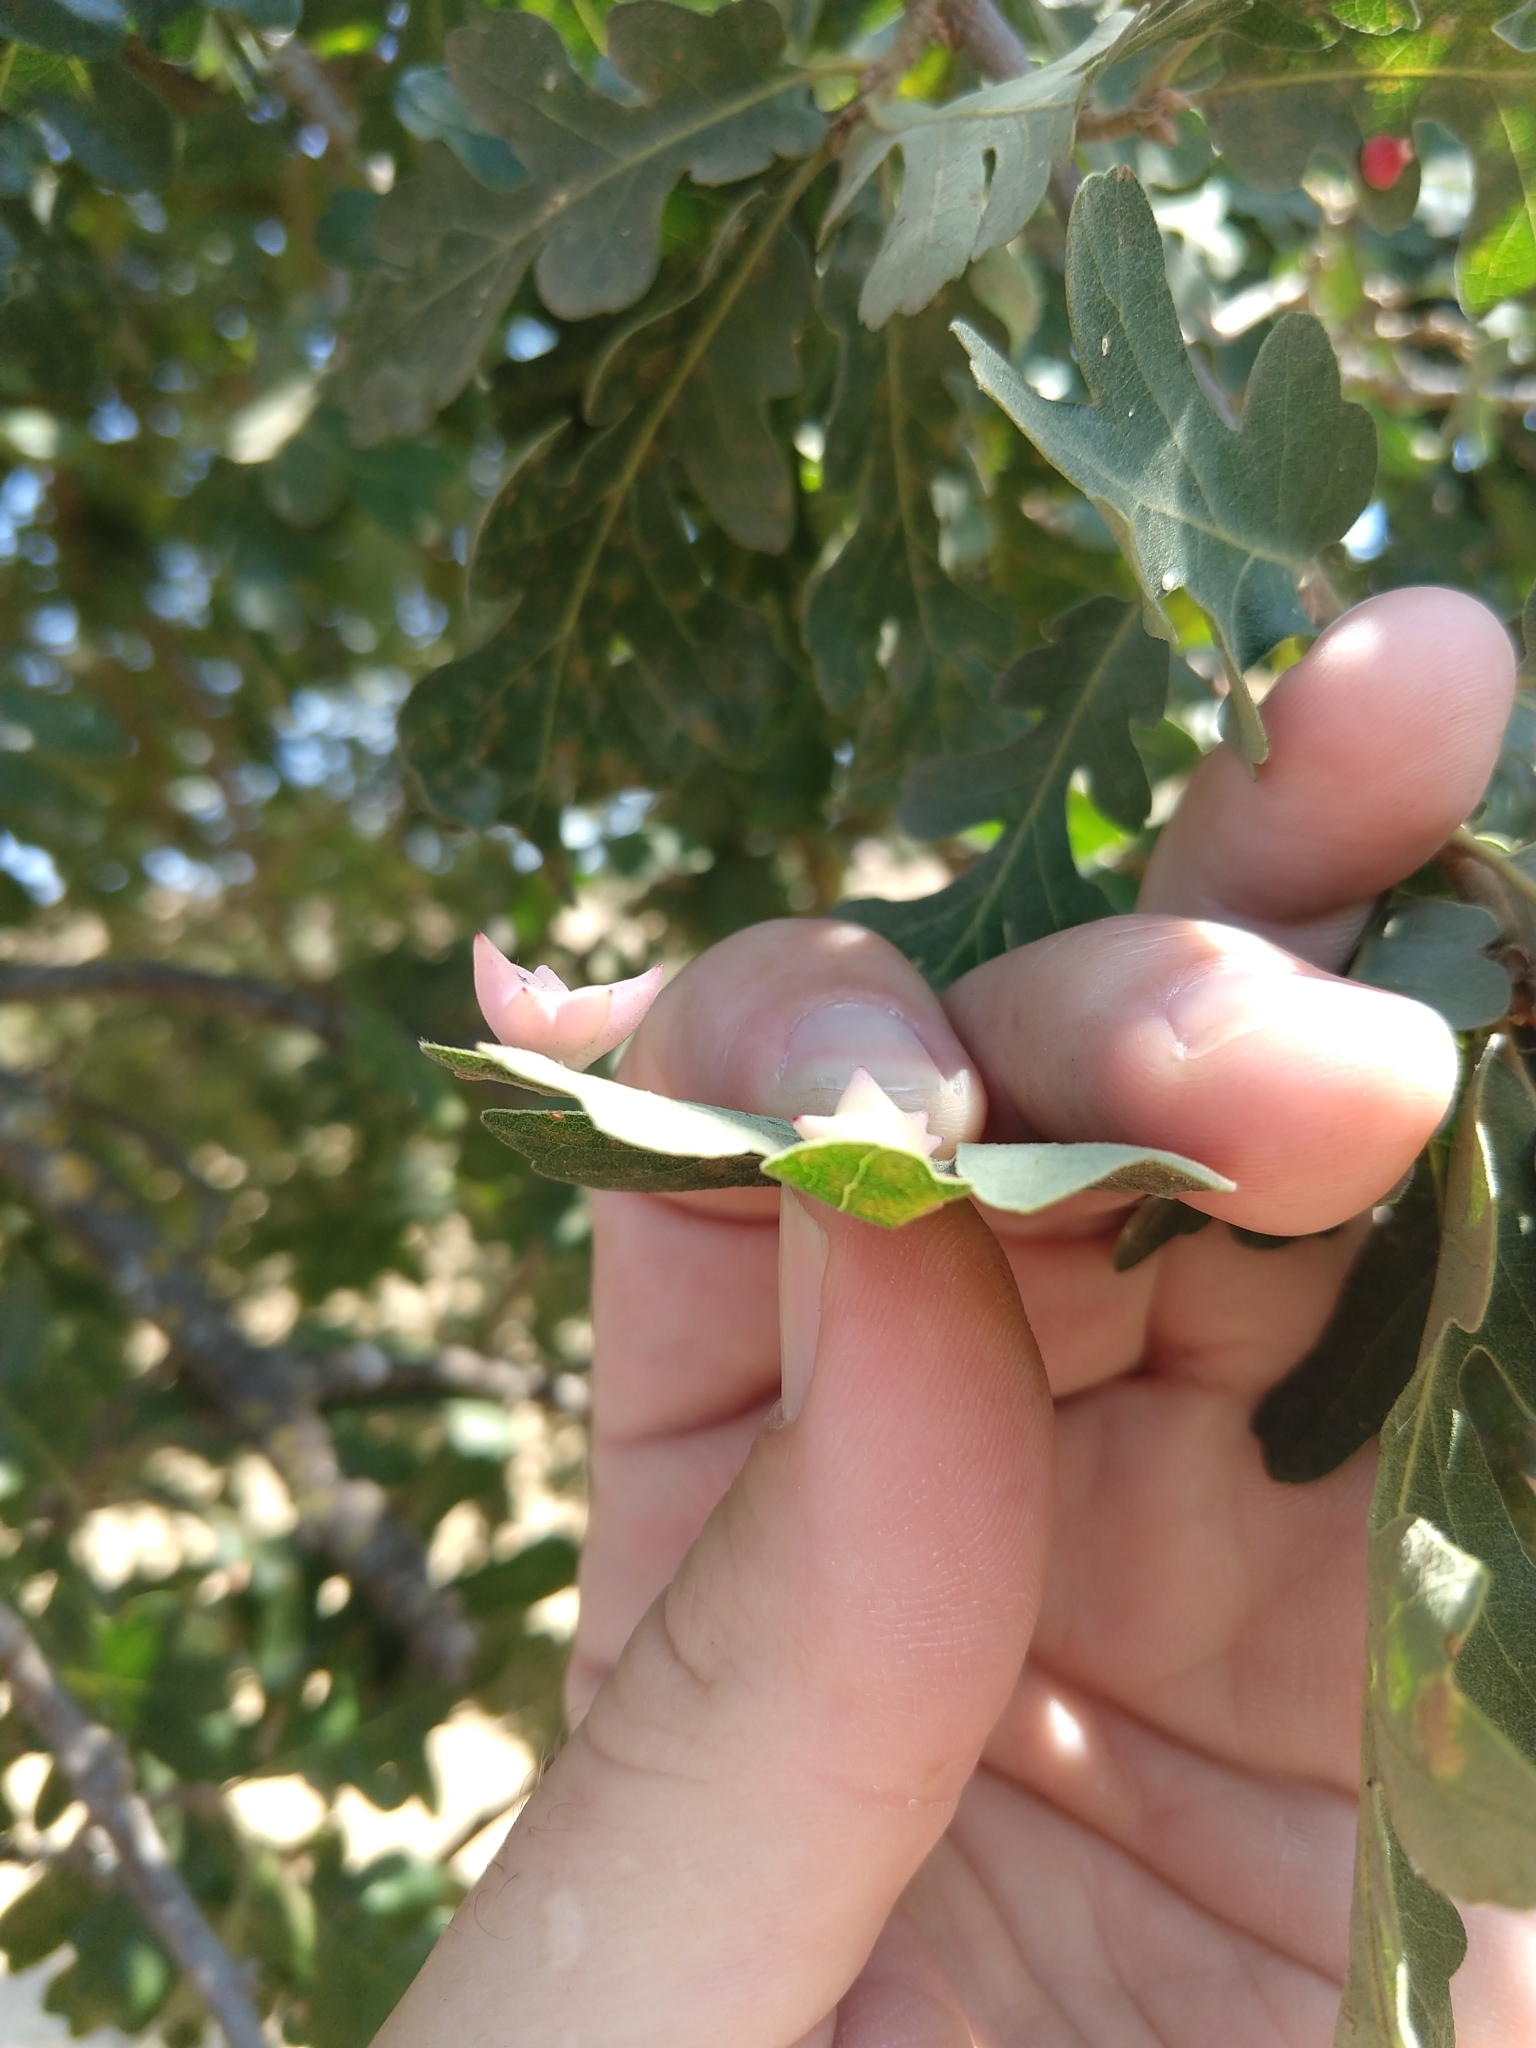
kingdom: Animalia
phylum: Arthropoda
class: Insecta
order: Hymenoptera
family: Cynipidae
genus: Cynips
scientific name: Cynips douglasi
